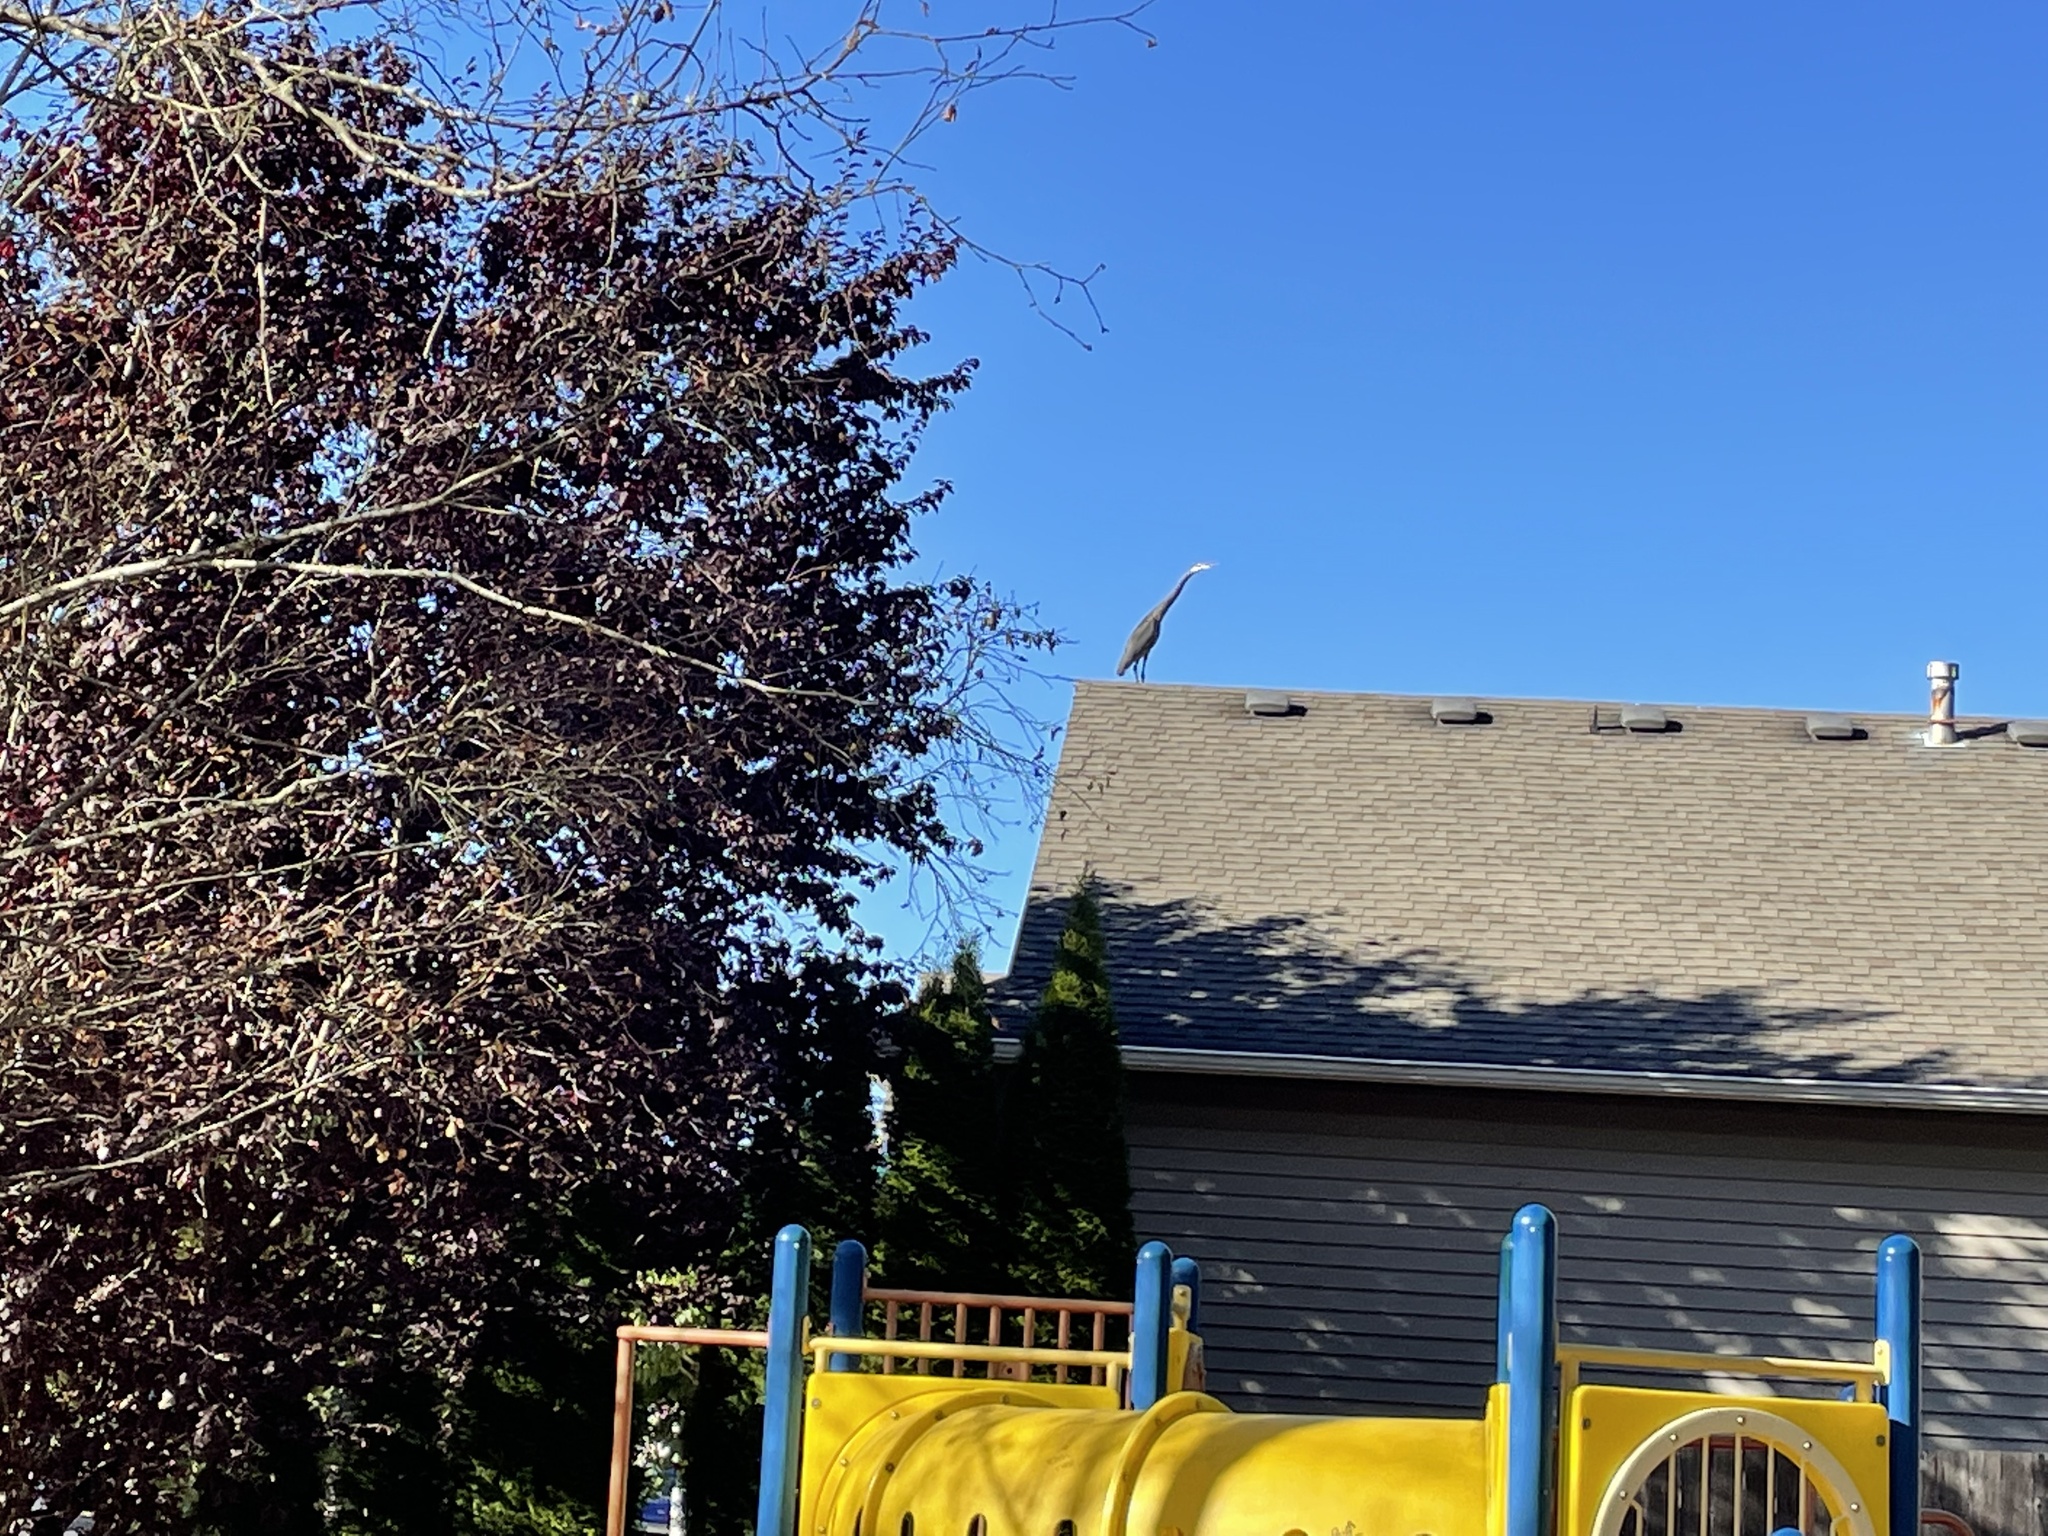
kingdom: Animalia
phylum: Chordata
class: Aves
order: Pelecaniformes
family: Ardeidae
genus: Ardea
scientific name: Ardea herodias
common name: Great blue heron
